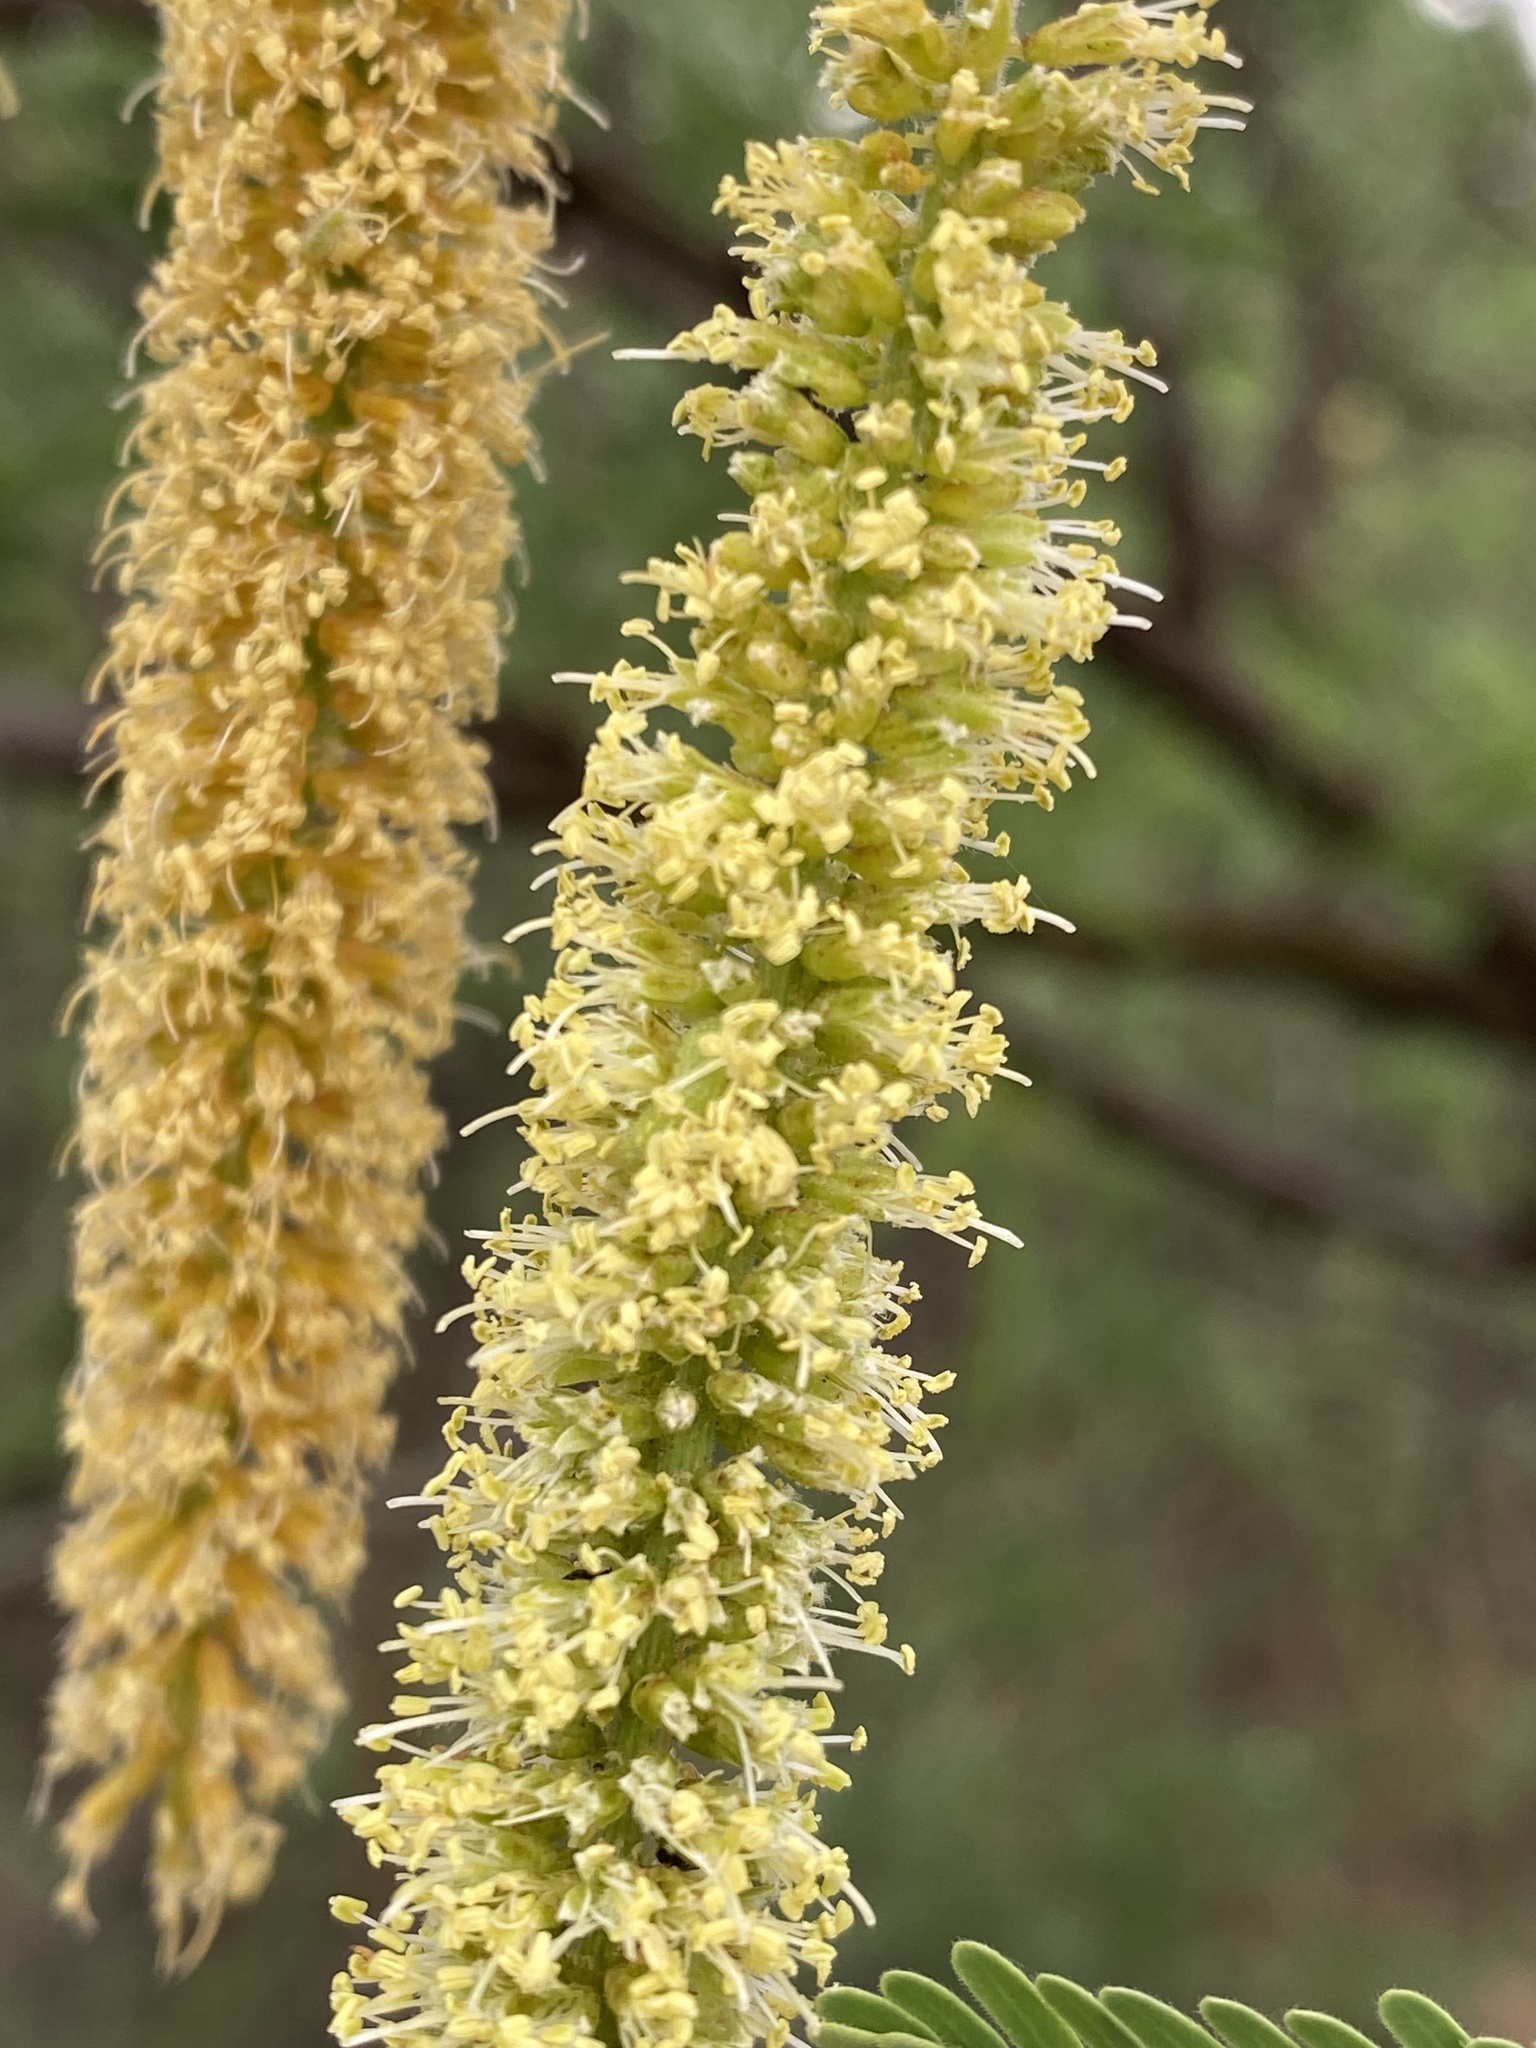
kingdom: Plantae
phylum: Tracheophyta
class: Magnoliopsida
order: Fabales
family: Fabaceae
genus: Prosopis
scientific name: Prosopis velutina
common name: Velvet mesquite
